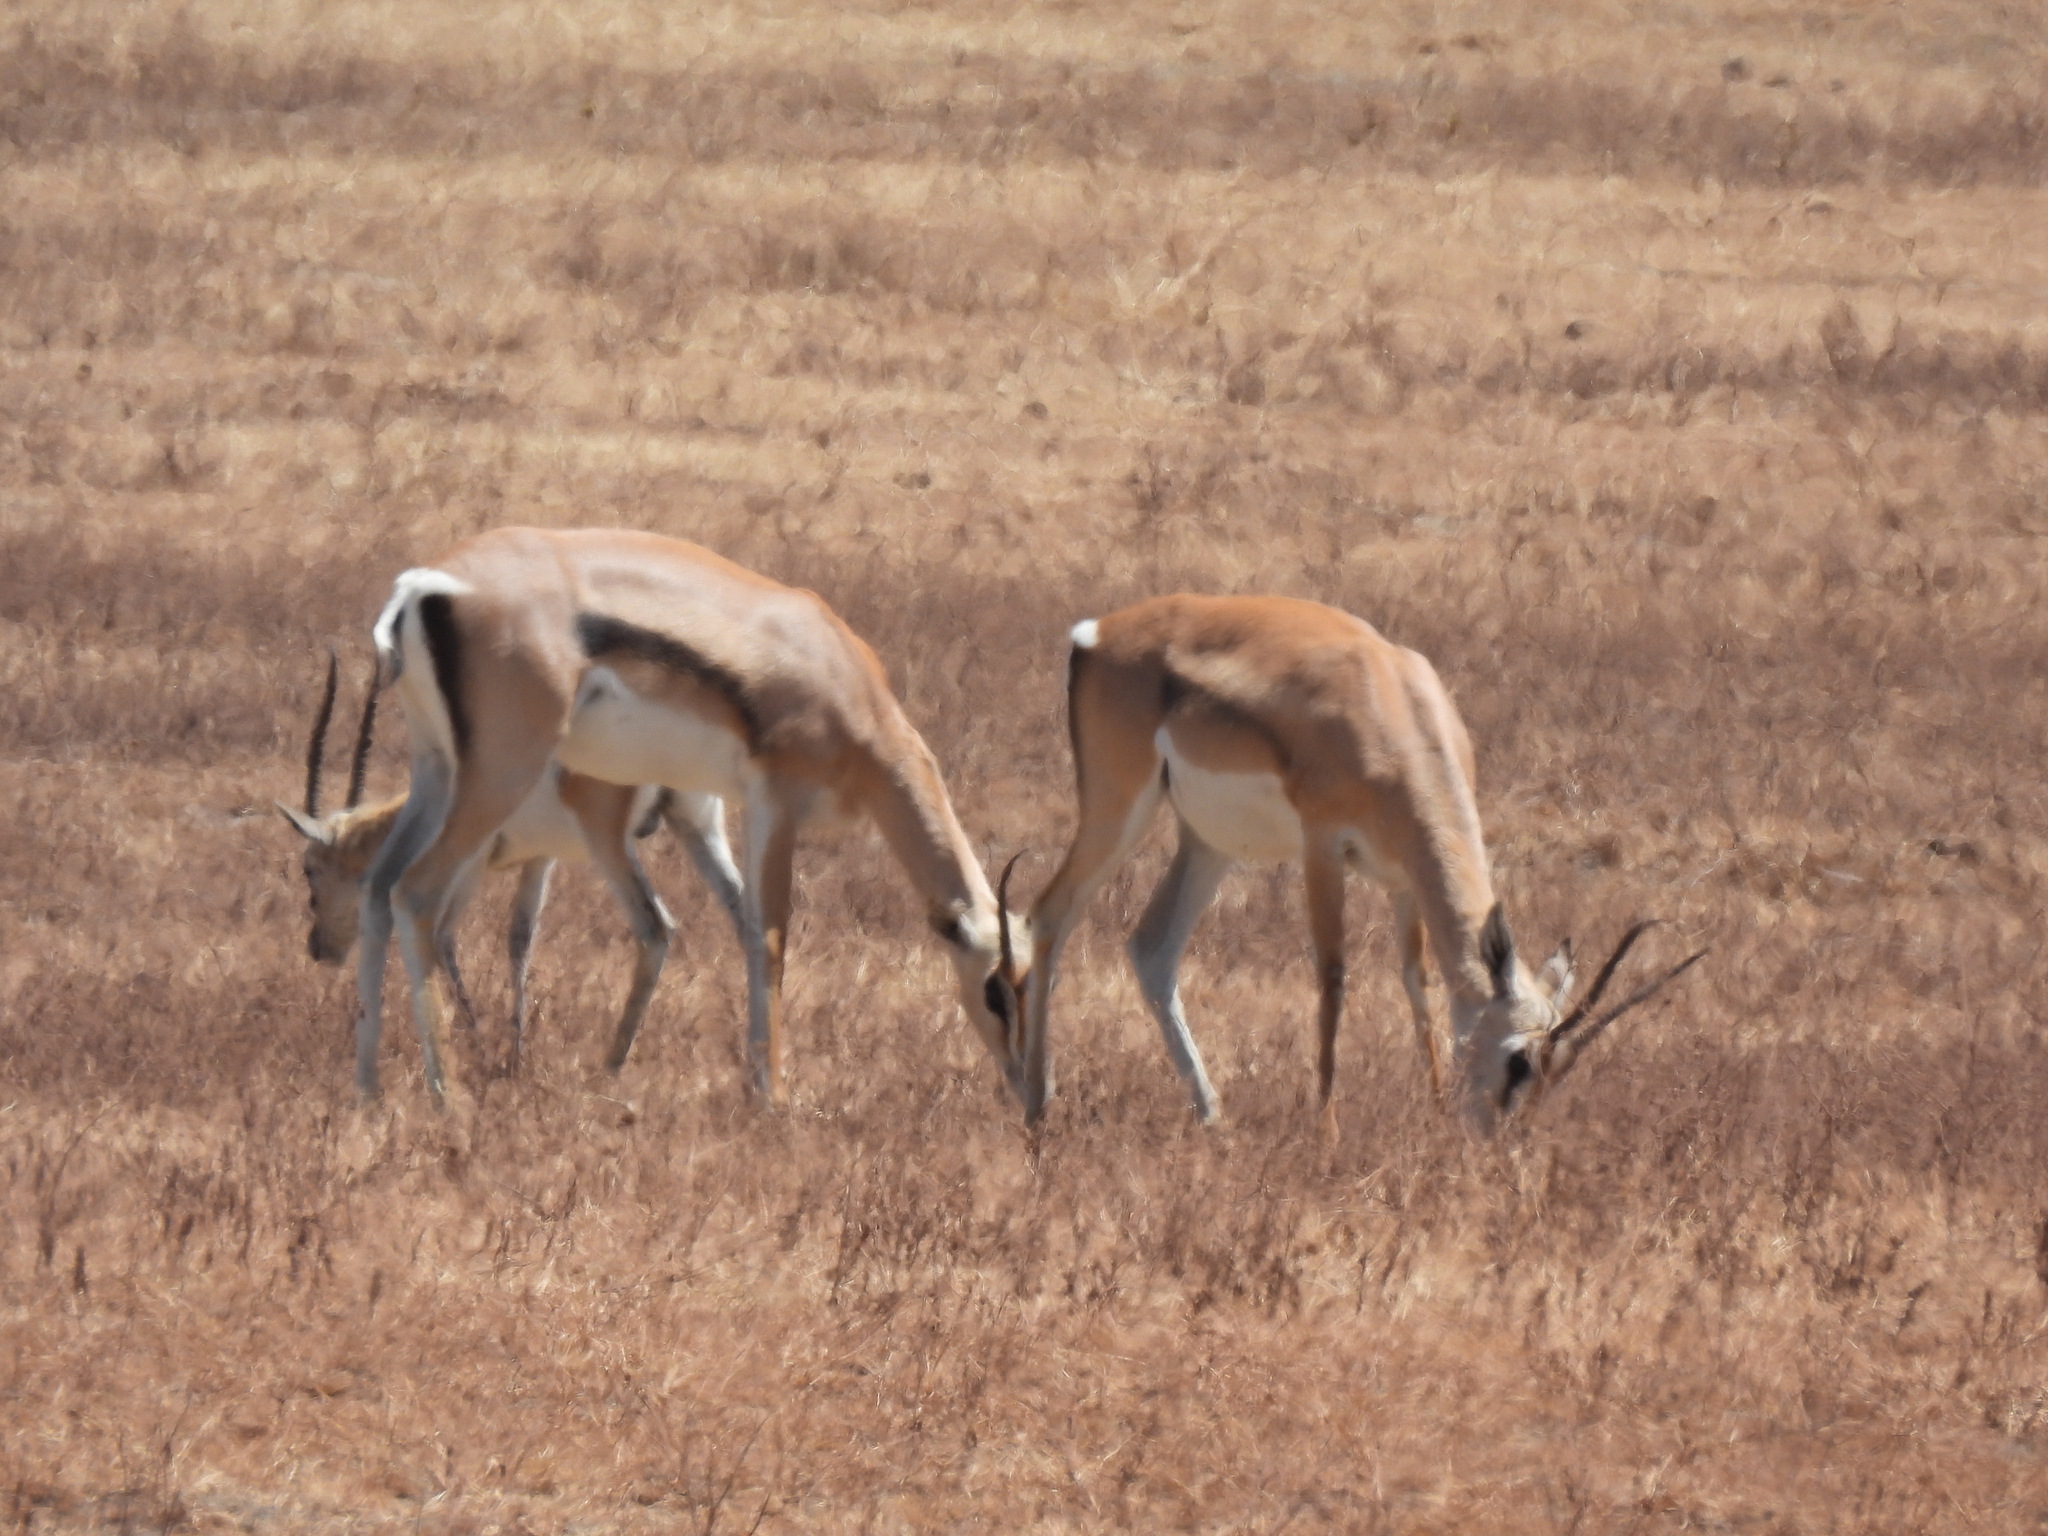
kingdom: Animalia
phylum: Chordata
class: Mammalia
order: Artiodactyla
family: Bovidae
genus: Nanger
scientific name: Nanger granti
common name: Grant's gazelle
